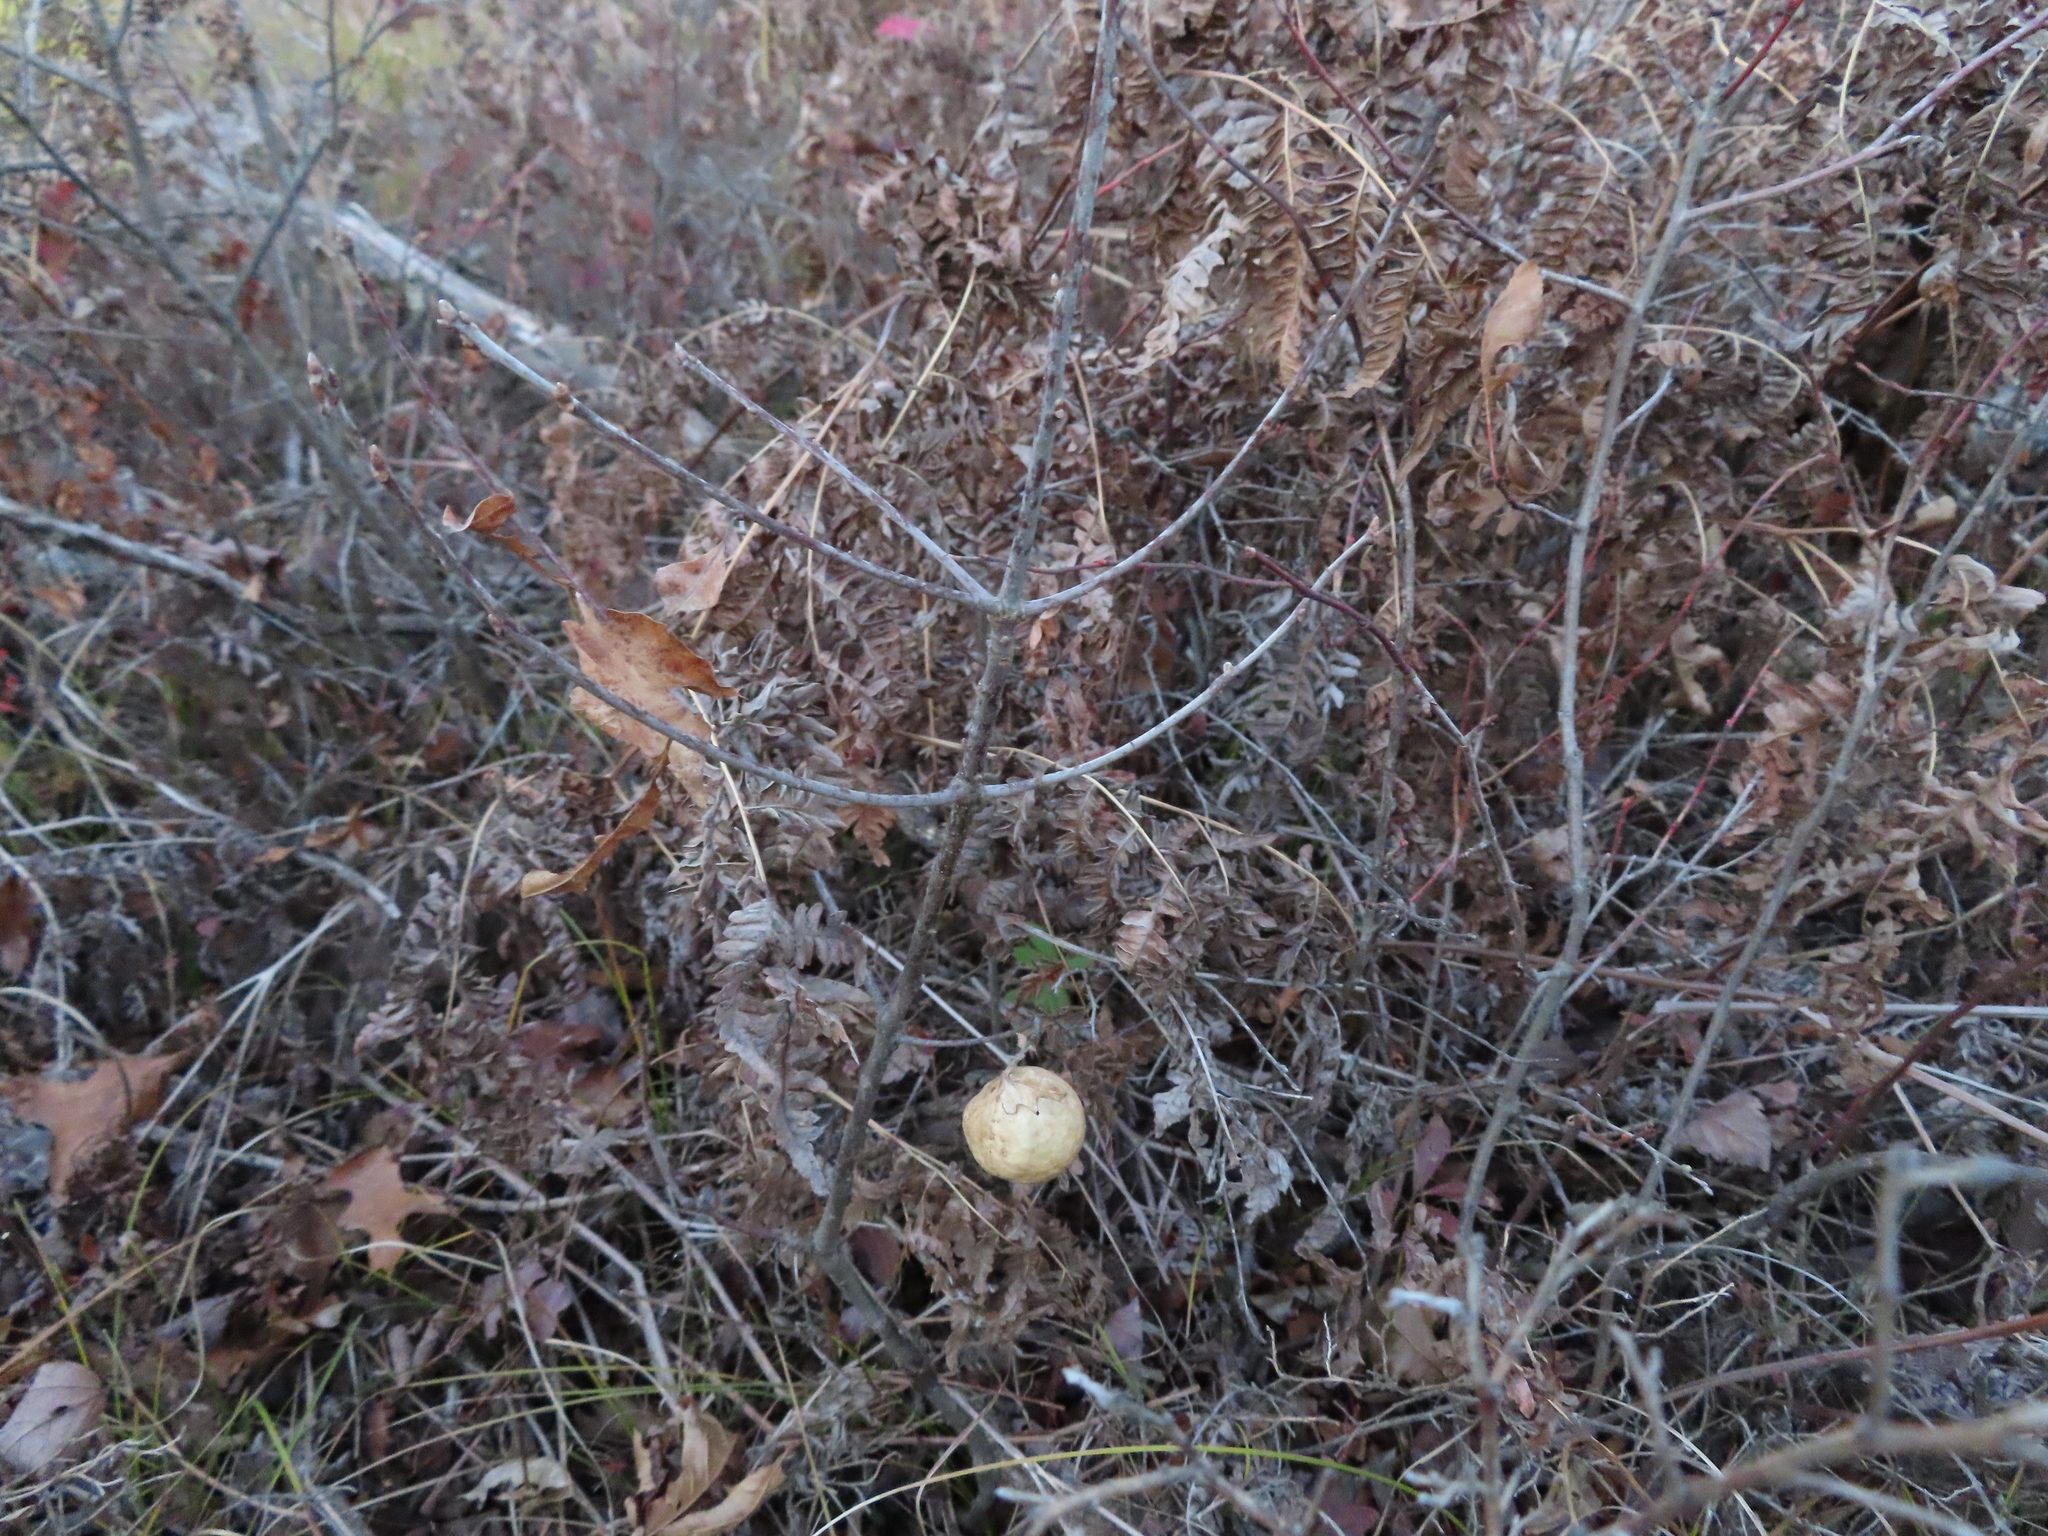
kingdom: Animalia
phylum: Arthropoda
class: Insecta
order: Hymenoptera
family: Cynipidae
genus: Amphibolips
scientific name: Amphibolips
